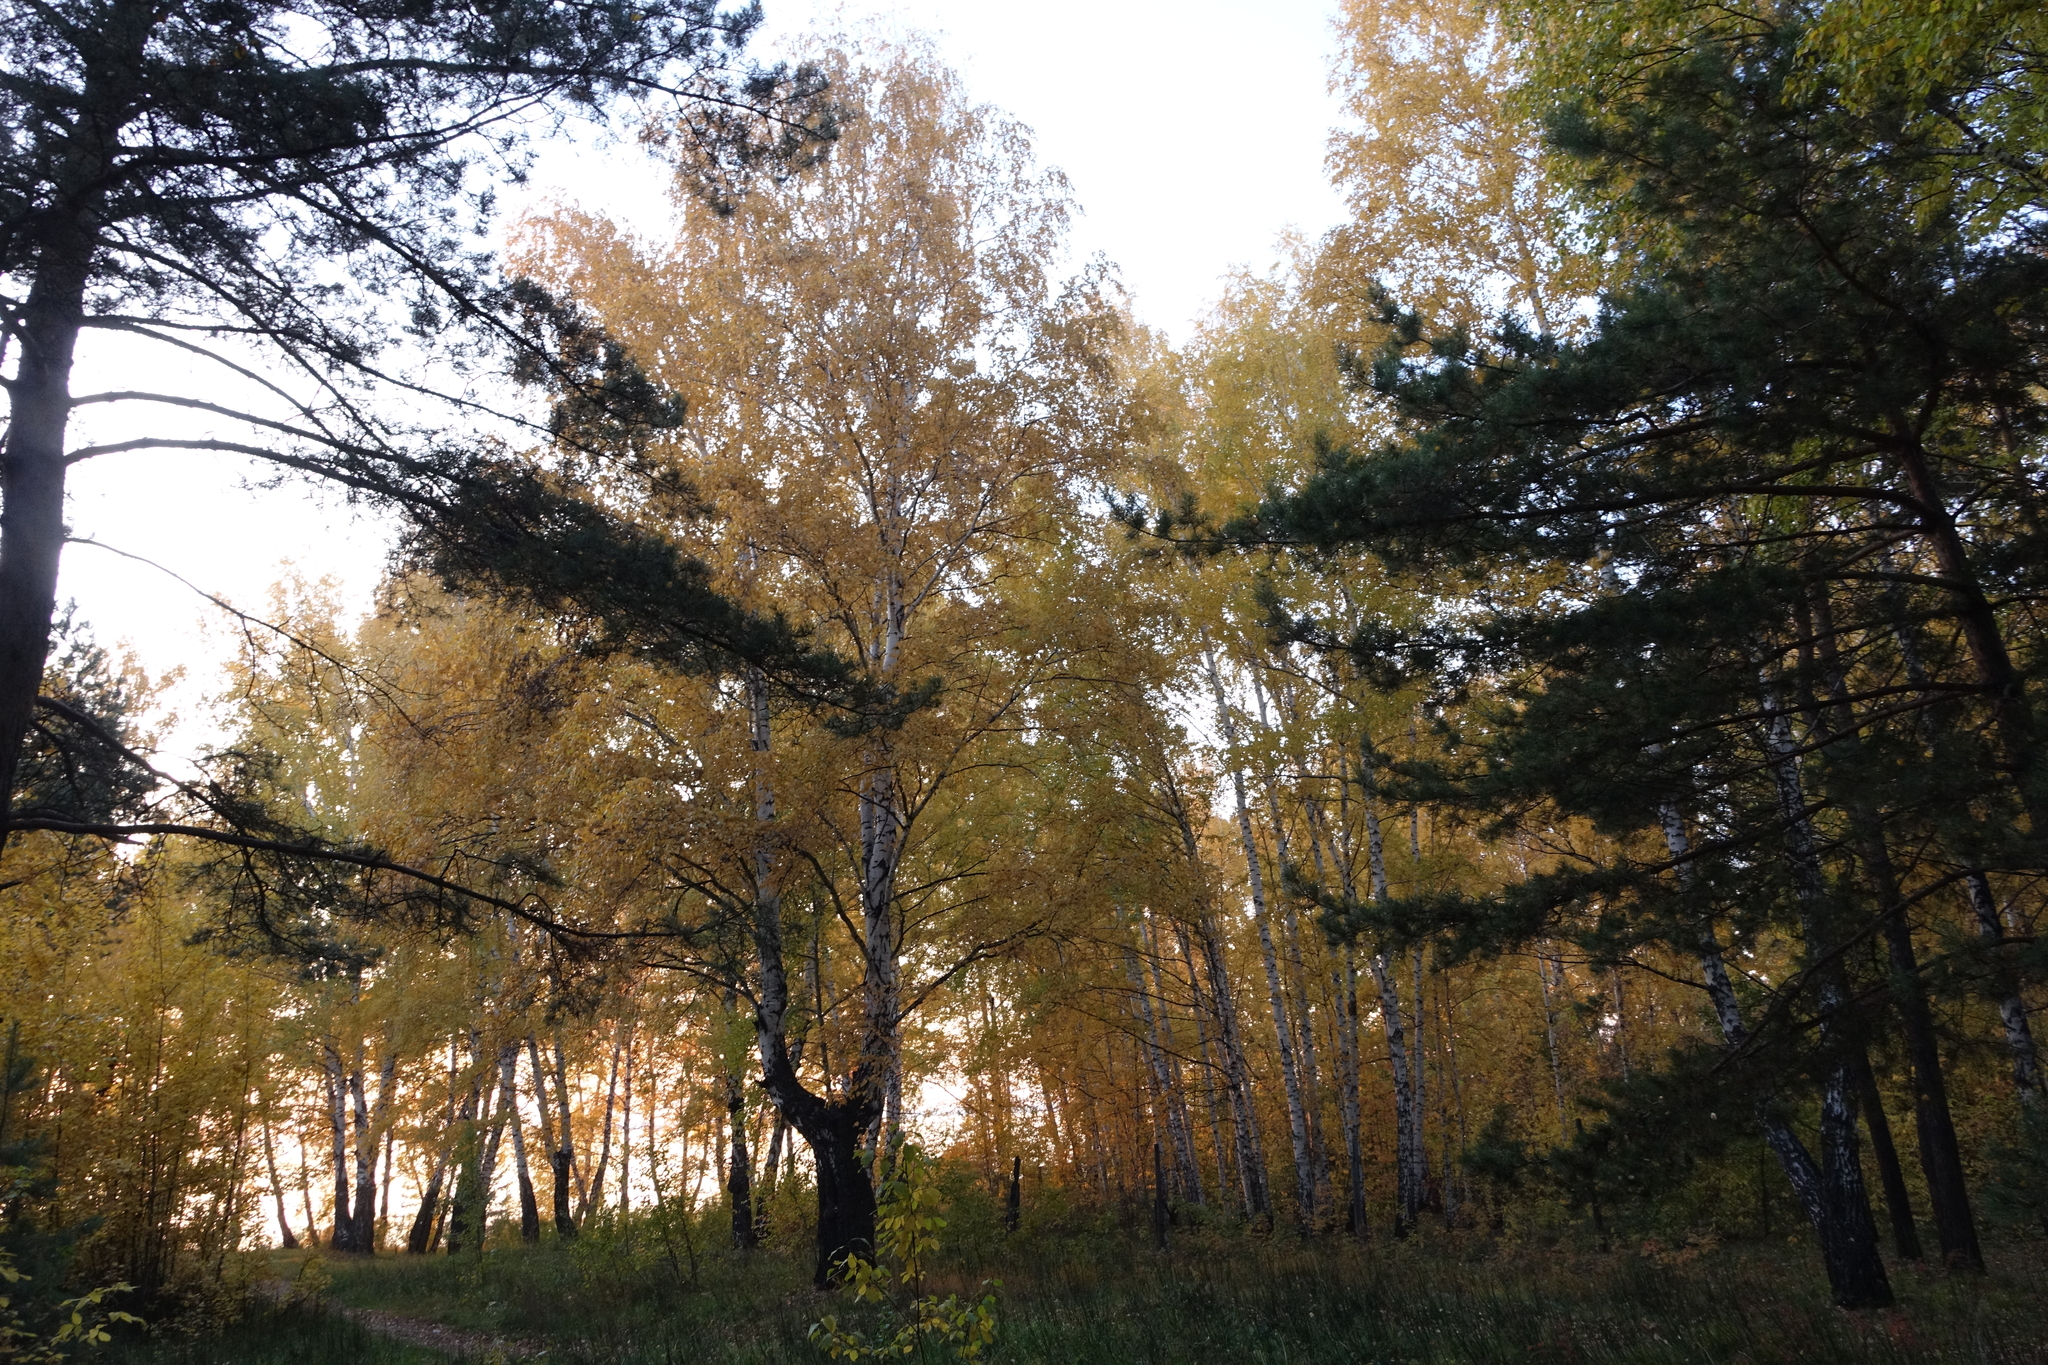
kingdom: Plantae
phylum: Tracheophyta
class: Magnoliopsida
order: Fagales
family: Betulaceae
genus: Betula
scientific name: Betula pendula
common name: Silver birch
